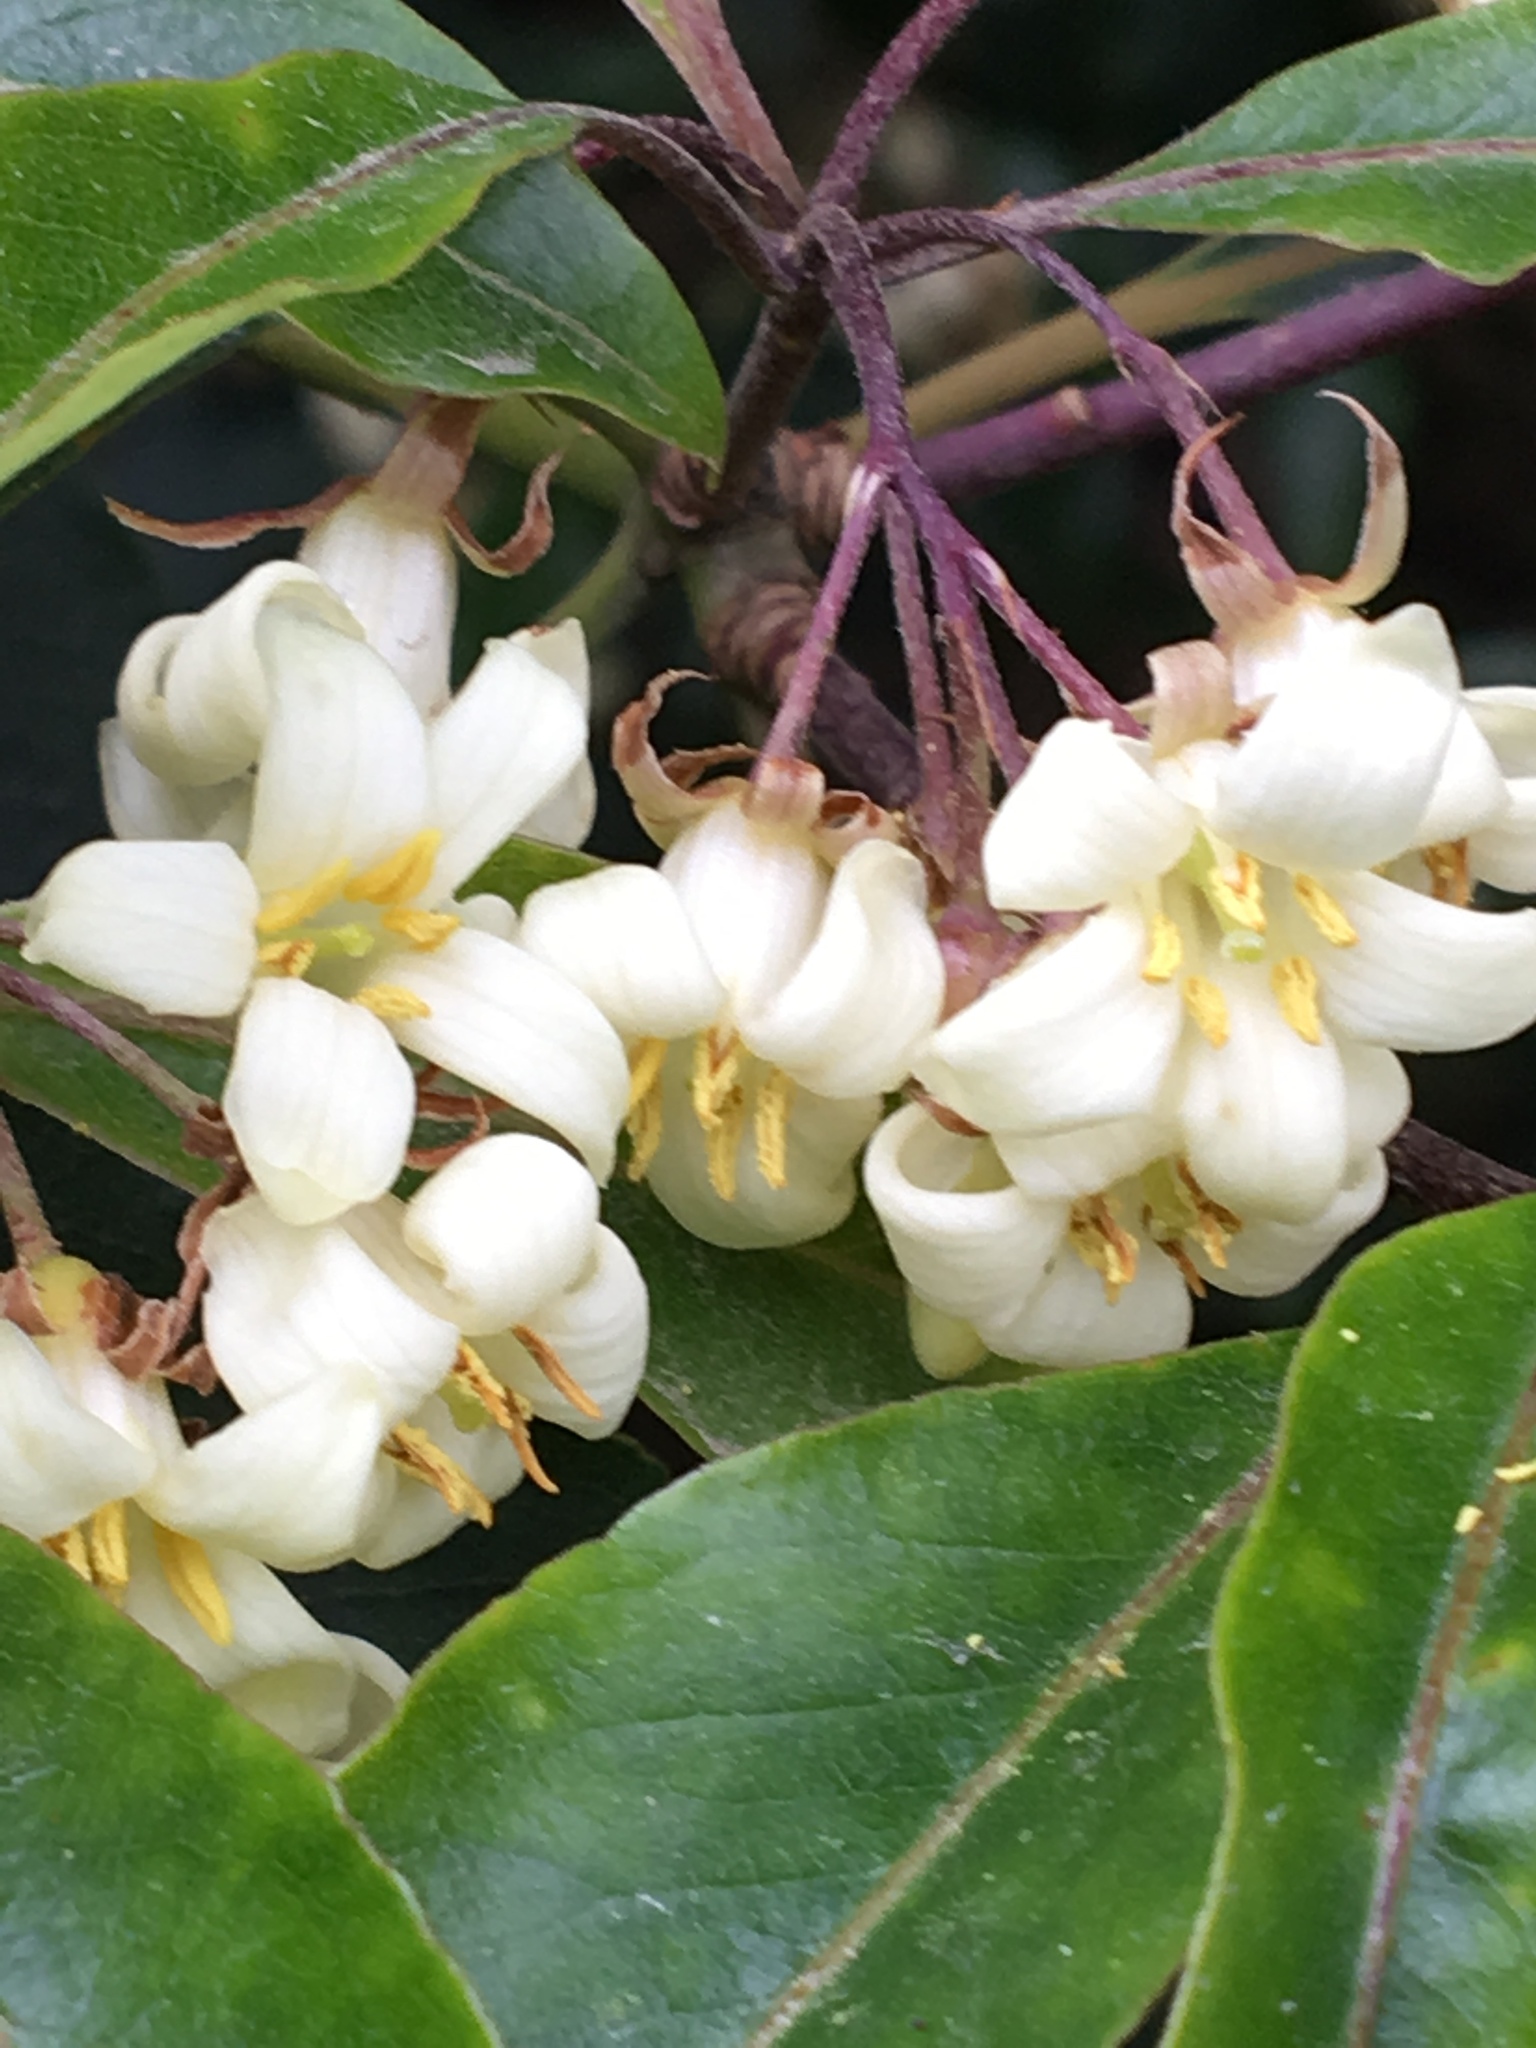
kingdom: Plantae
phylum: Tracheophyta
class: Magnoliopsida
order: Apiales
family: Pittosporaceae
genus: Pittosporum
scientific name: Pittosporum undulatum
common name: Australian cheesewood
